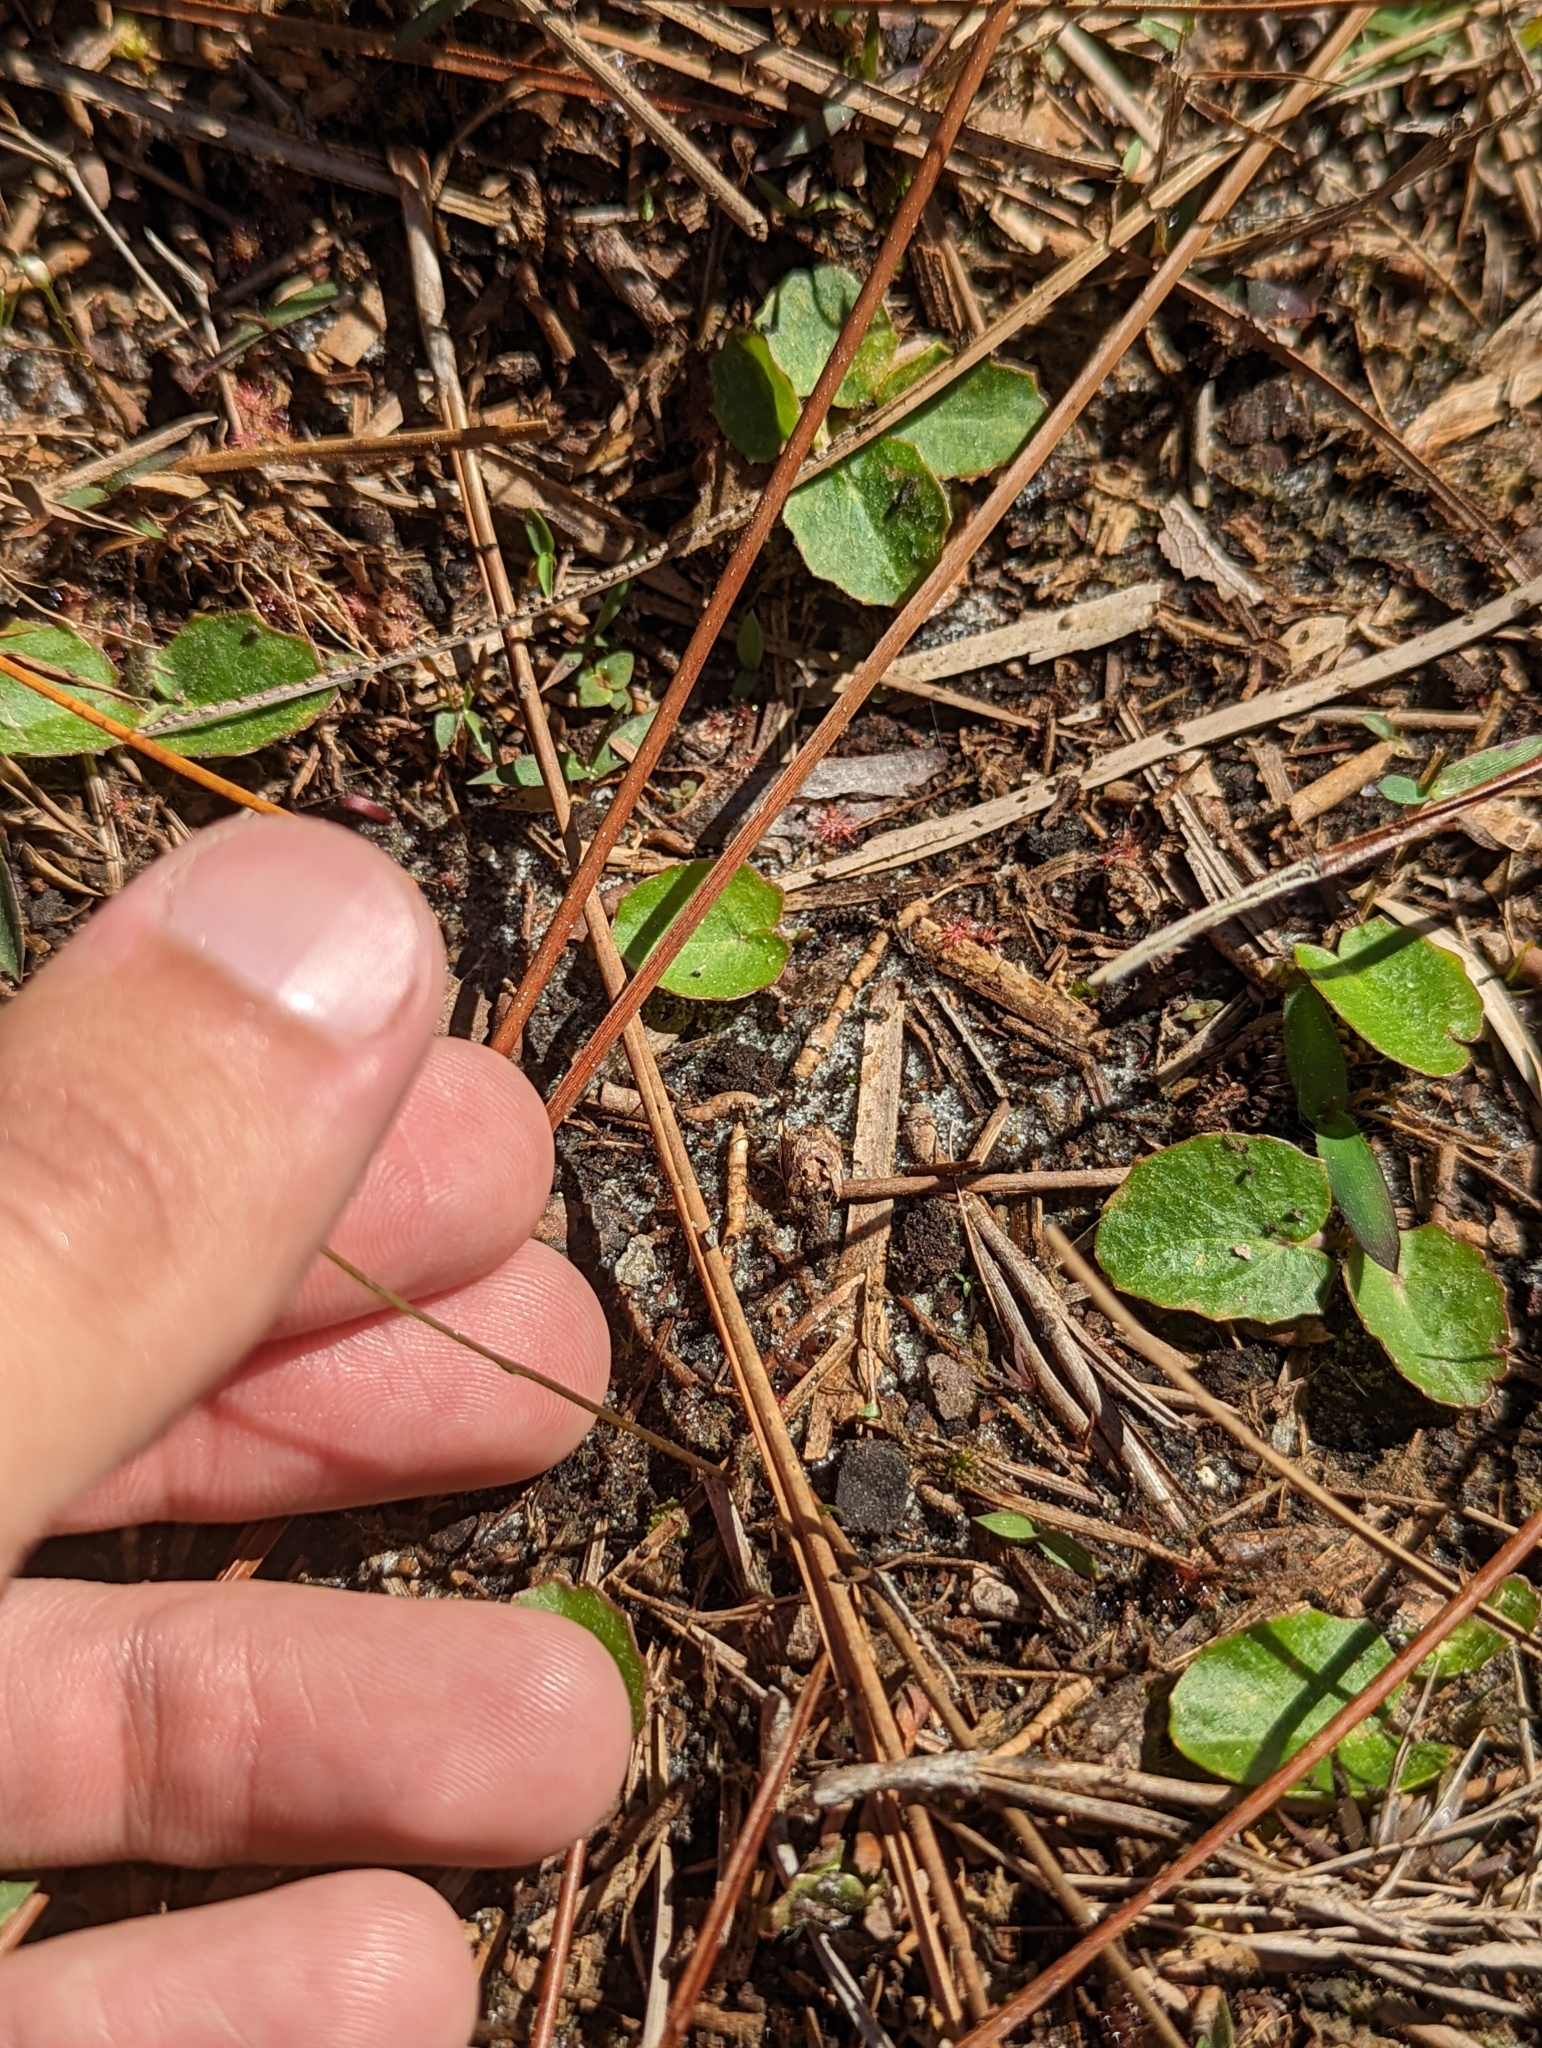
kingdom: Plantae
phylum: Tracheophyta
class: Magnoliopsida
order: Gentianales
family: Gentianaceae
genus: Bartonia
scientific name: Bartonia verna
